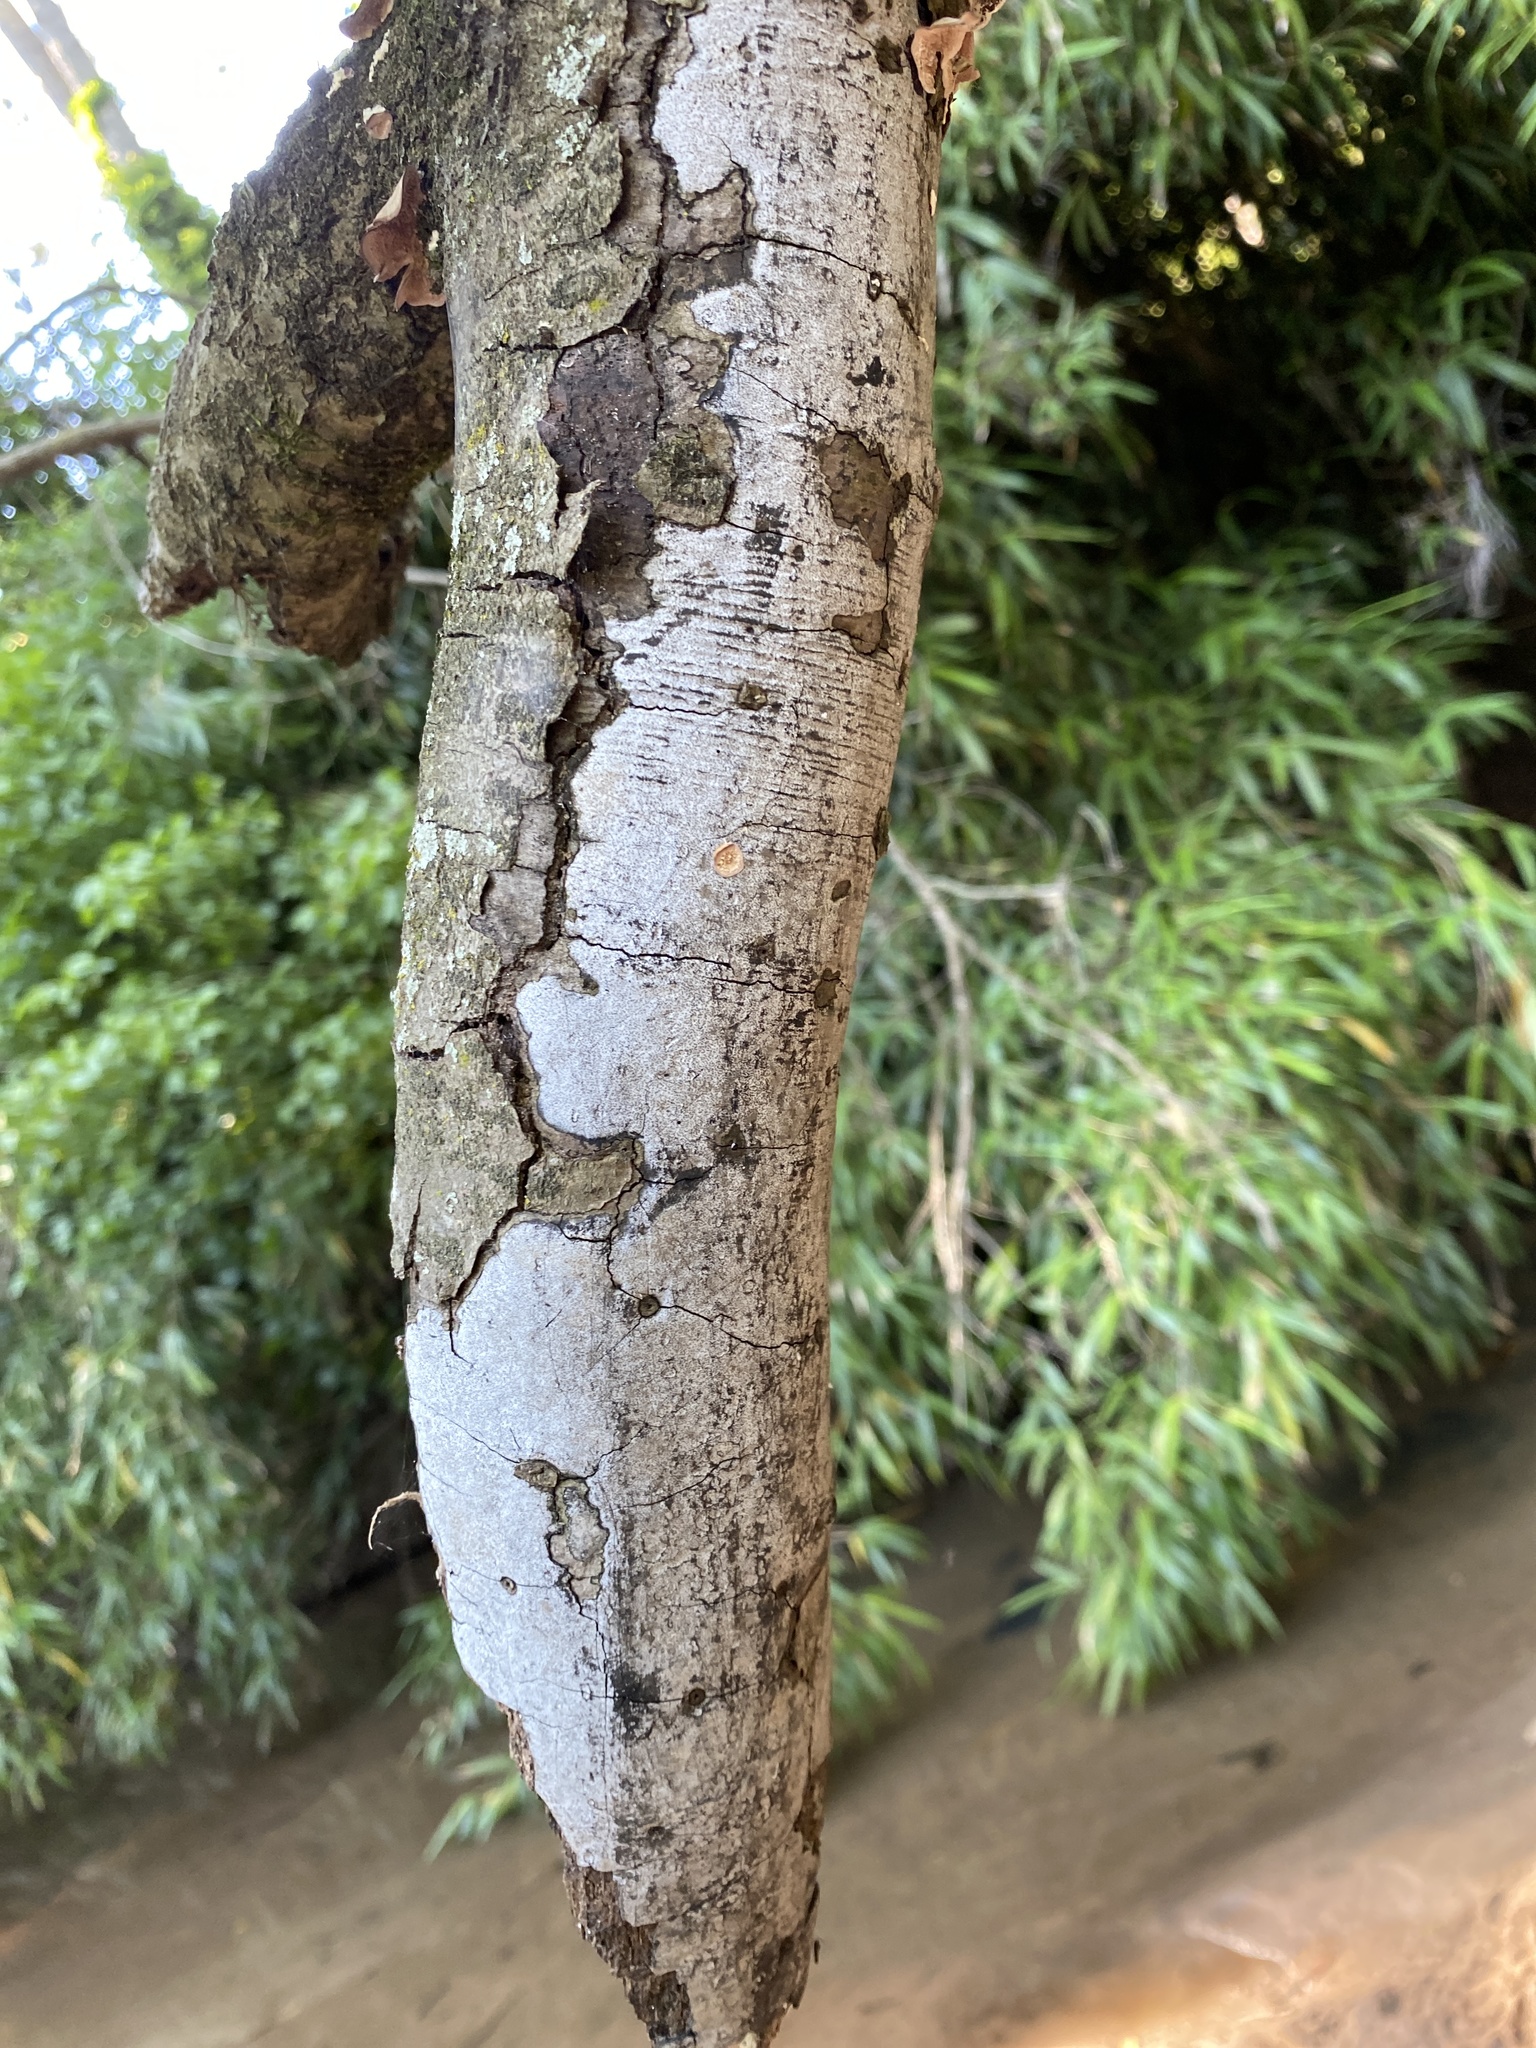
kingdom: Fungi
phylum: Ascomycota
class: Sordariomycetes
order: Xylariales
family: Graphostromataceae
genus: Biscogniauxia
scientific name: Biscogniauxia atropunctata
